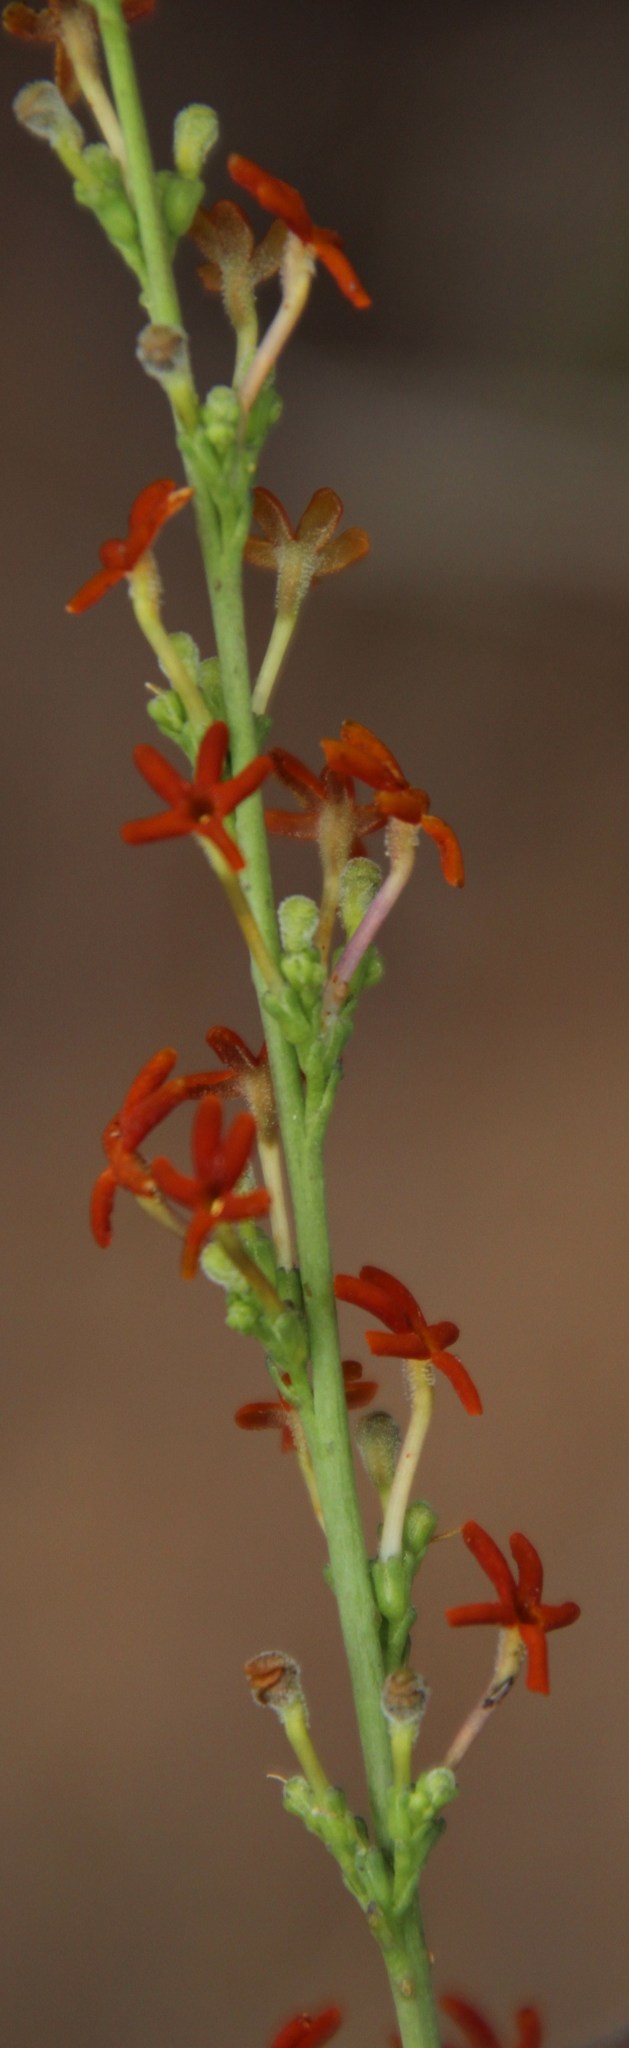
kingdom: Plantae
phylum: Tracheophyta
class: Magnoliopsida
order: Lamiales
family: Scrophulariaceae
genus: Manulea
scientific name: Manulea rubra
